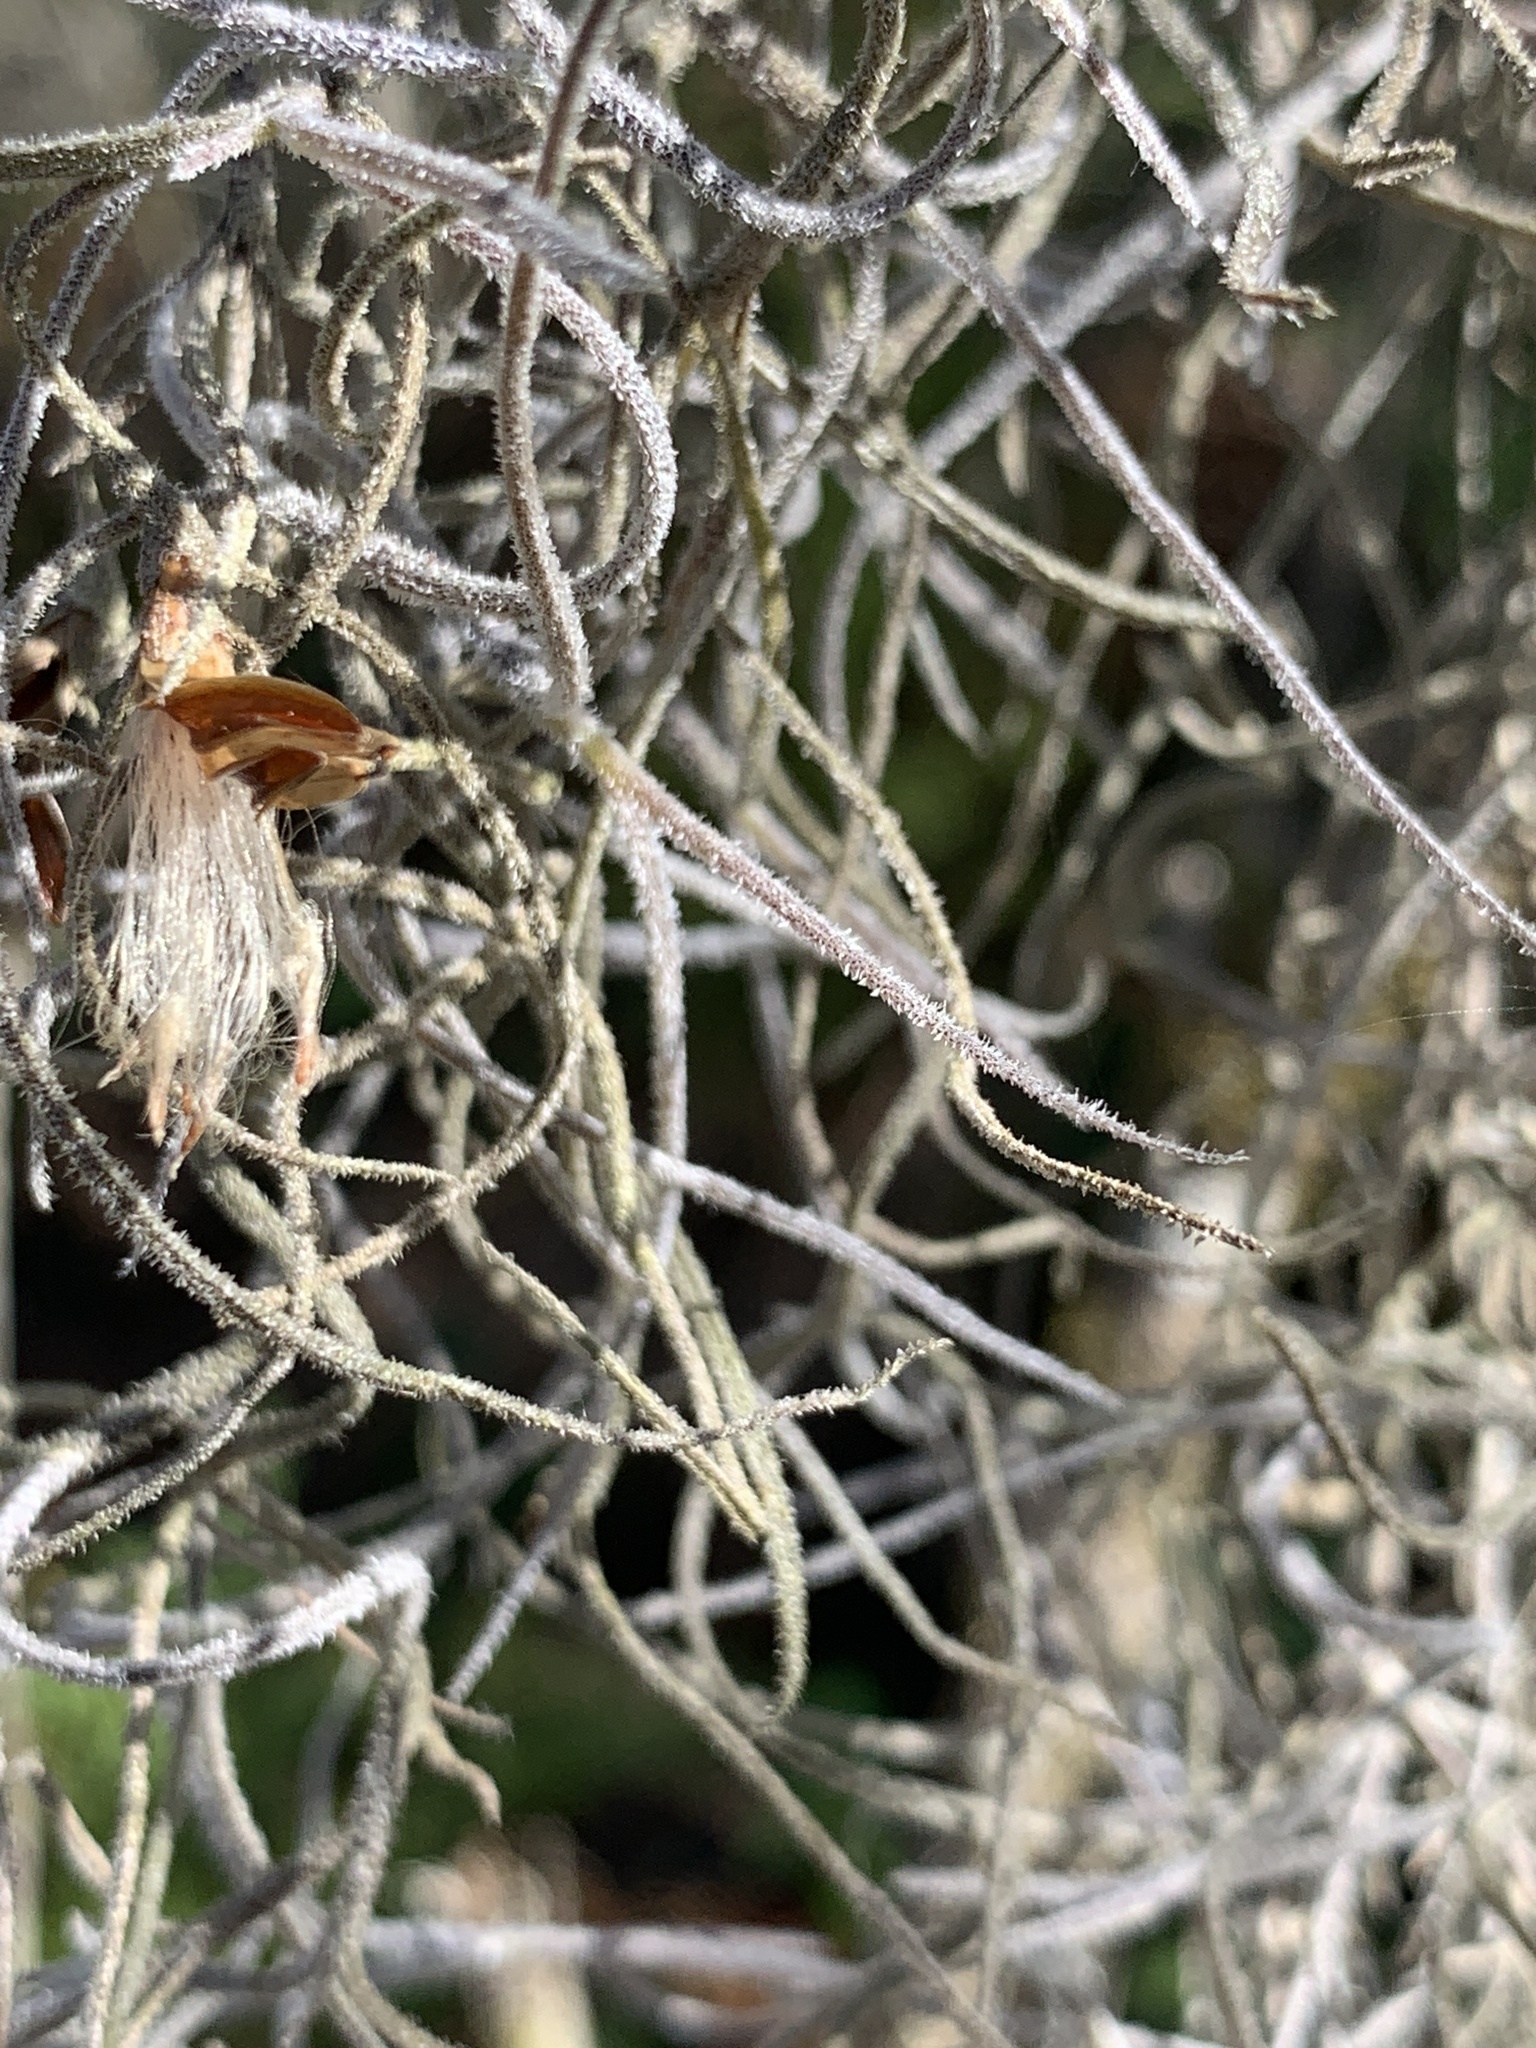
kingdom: Plantae
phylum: Tracheophyta
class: Liliopsida
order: Poales
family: Bromeliaceae
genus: Tillandsia
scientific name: Tillandsia usneoides
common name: Spanish moss
